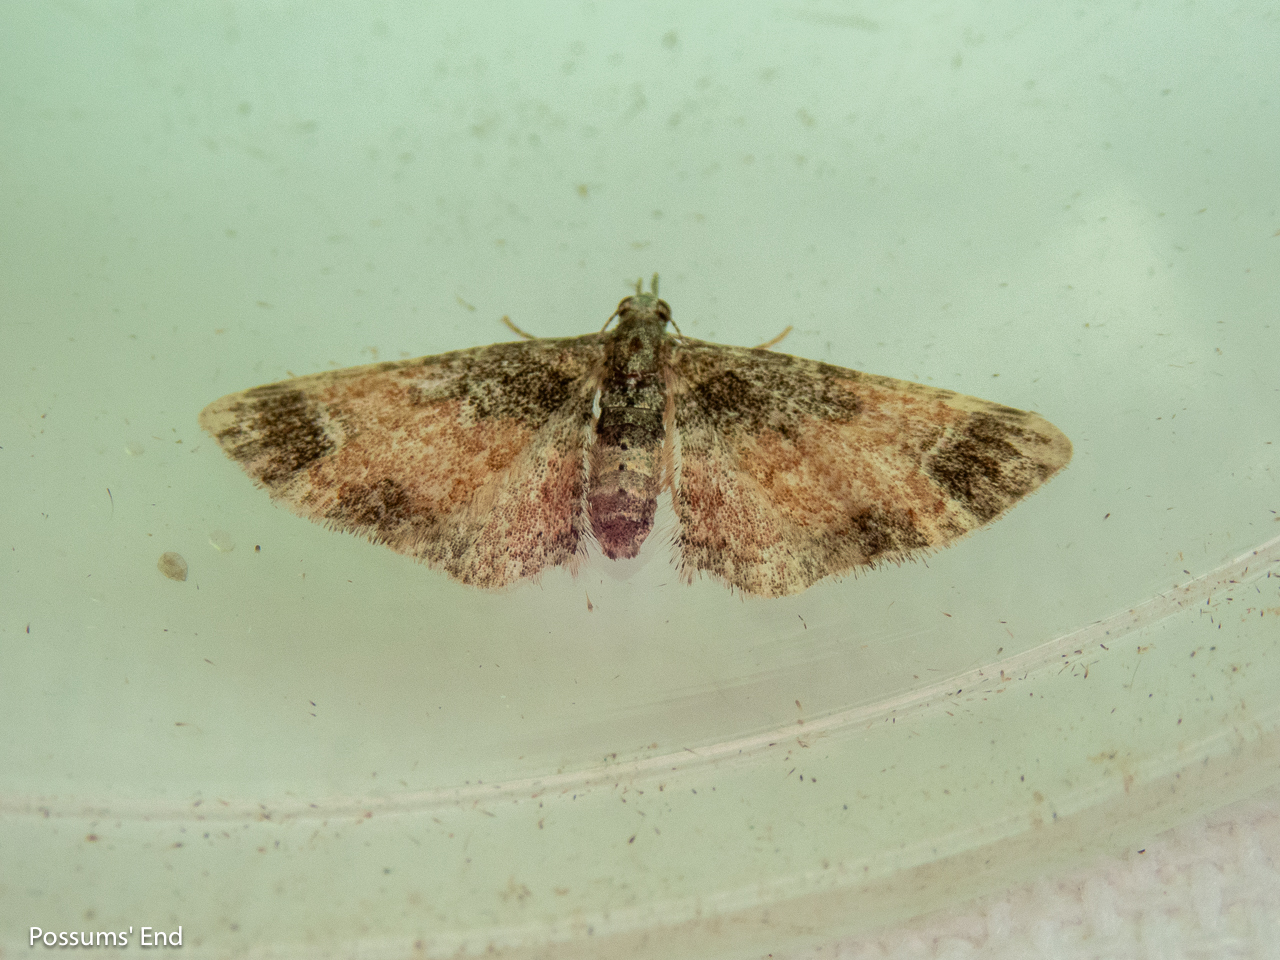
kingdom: Animalia
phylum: Arthropoda
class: Insecta
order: Lepidoptera
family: Geometridae
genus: Pasiphila
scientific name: Pasiphila sandycias
